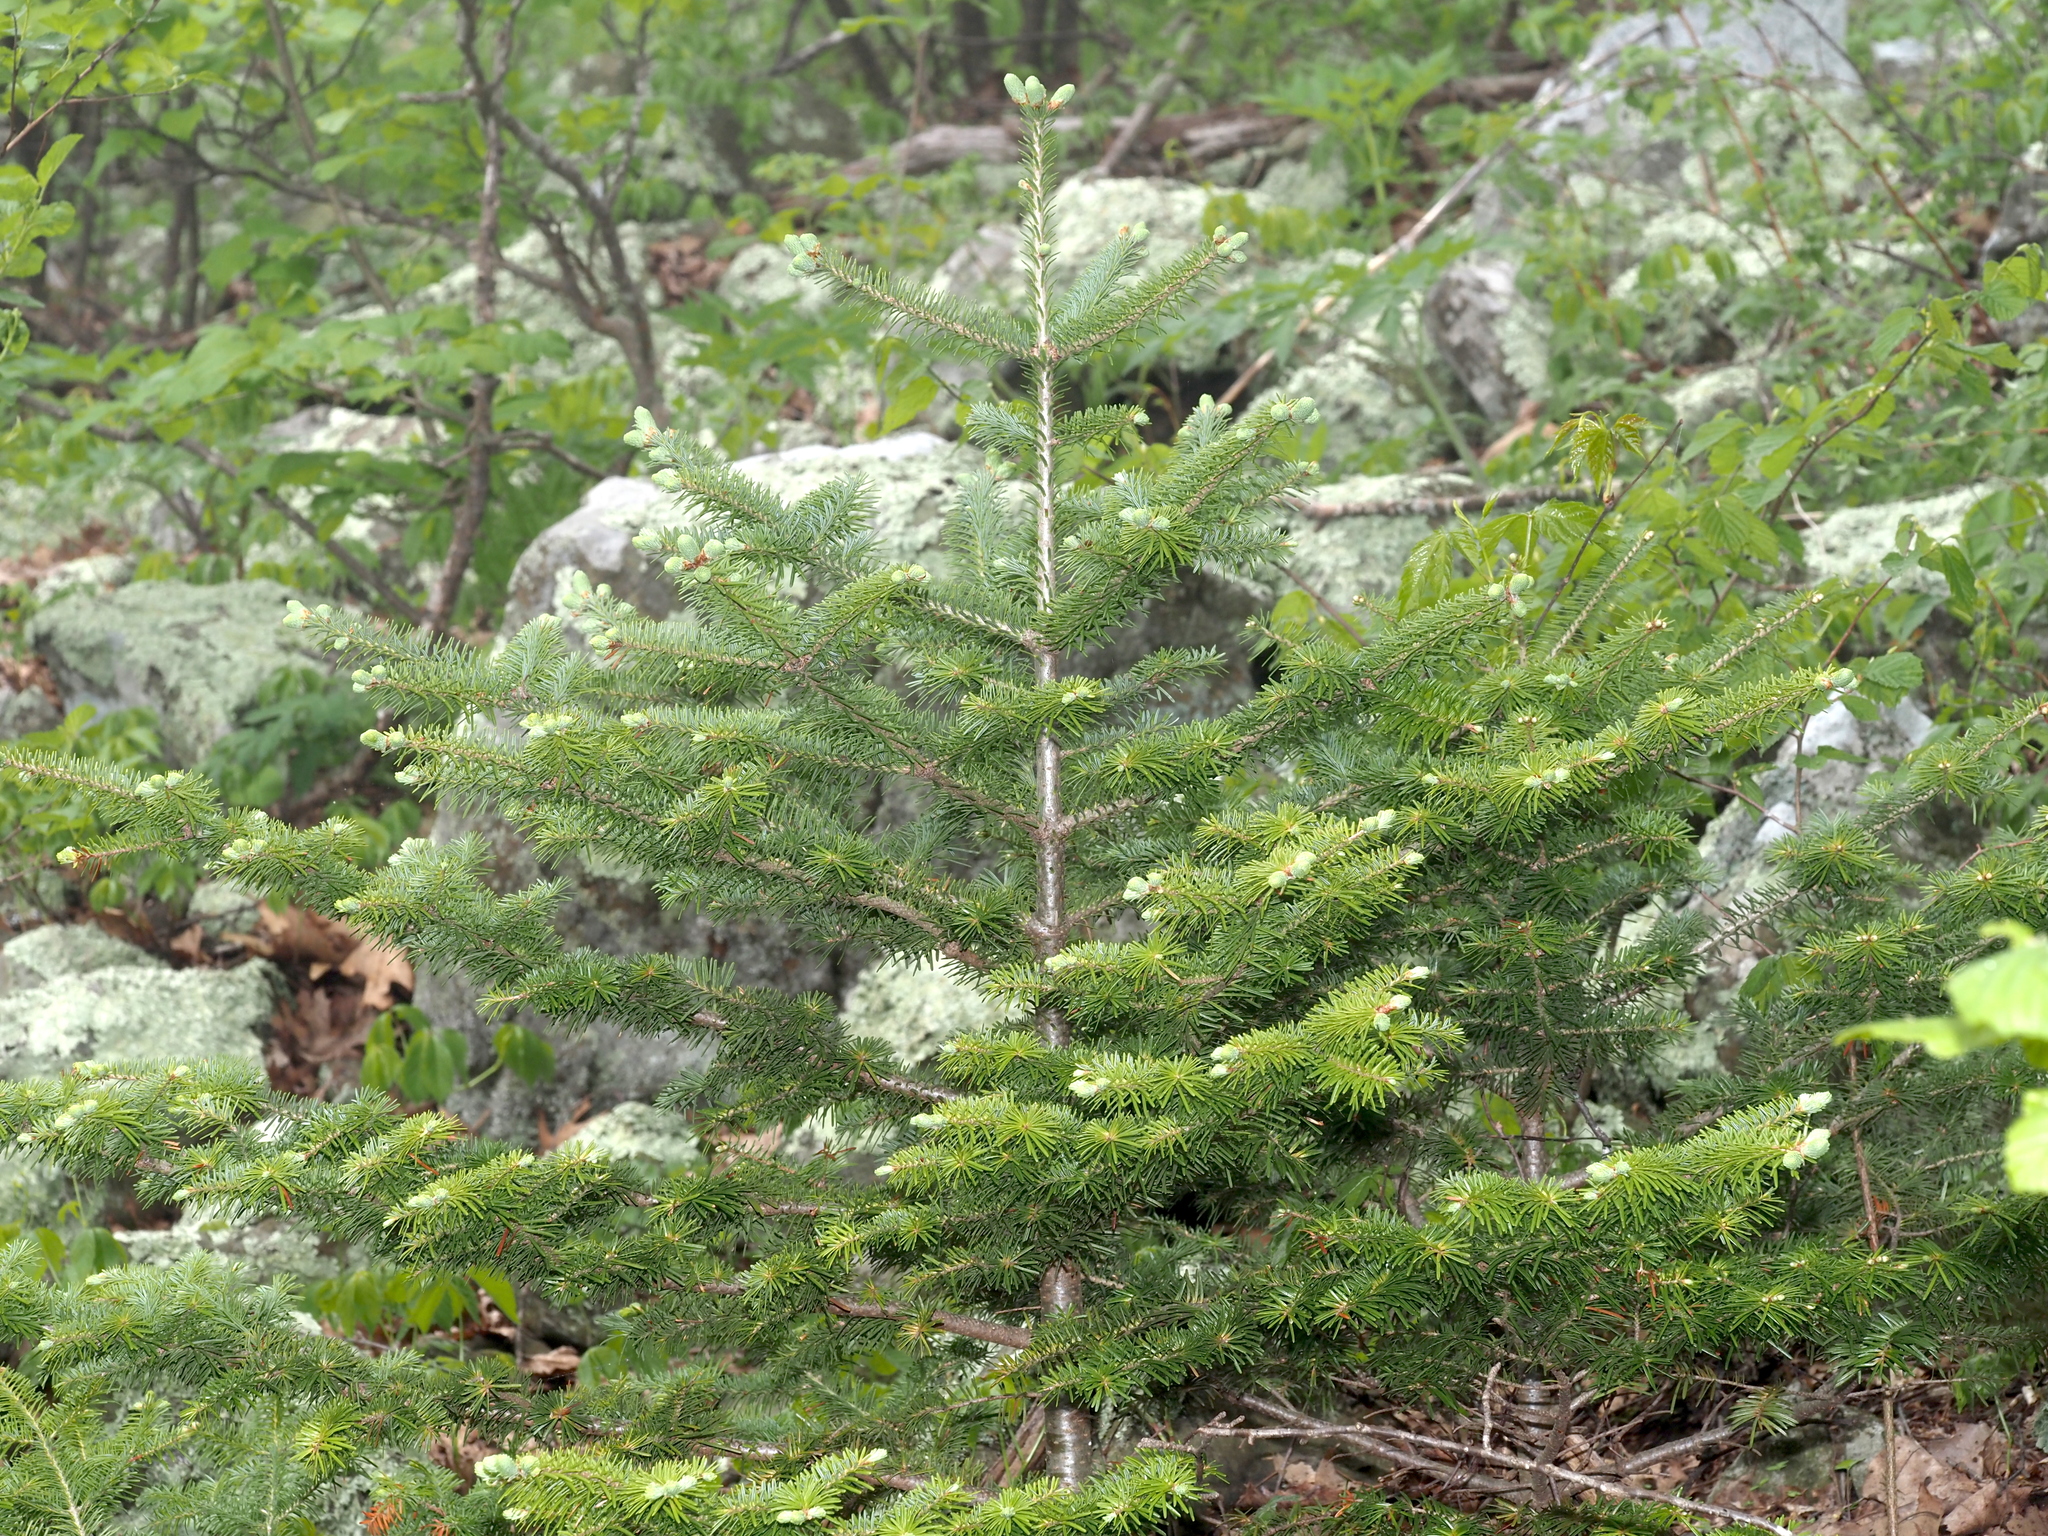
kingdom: Plantae
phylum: Tracheophyta
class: Pinopsida
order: Pinales
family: Pinaceae
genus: Abies
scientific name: Abies balsamea
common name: Balsam fir
